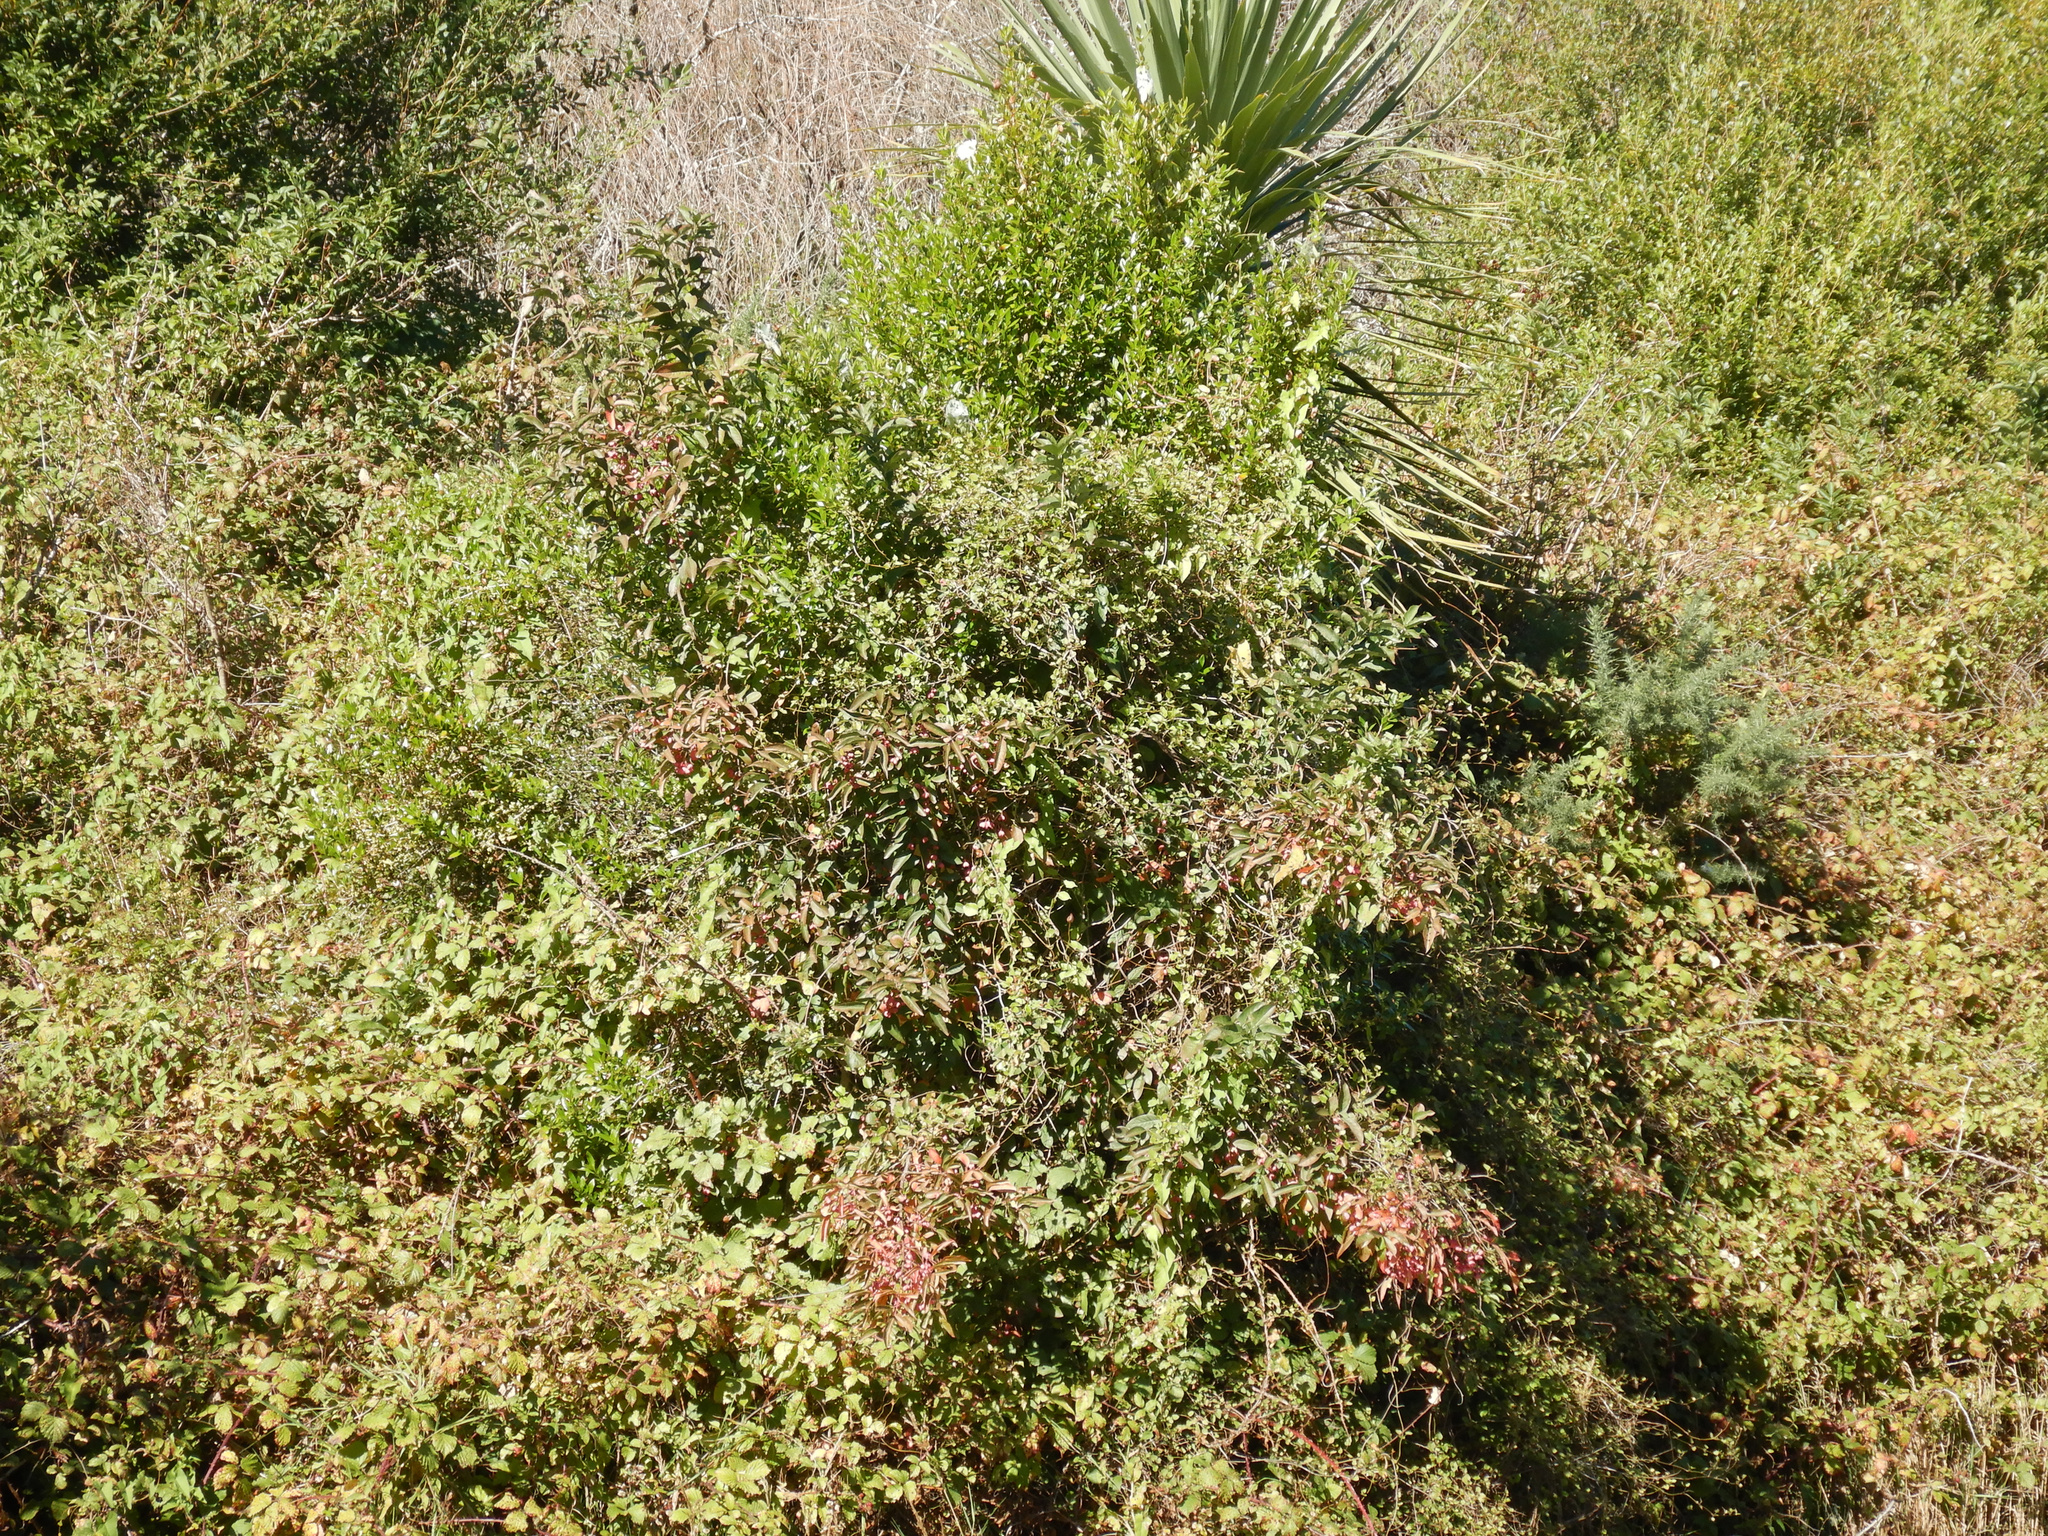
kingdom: Plantae
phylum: Tracheophyta
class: Magnoliopsida
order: Celastrales
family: Celastraceae
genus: Euonymus
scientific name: Euonymus europaeus
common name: Spindle
